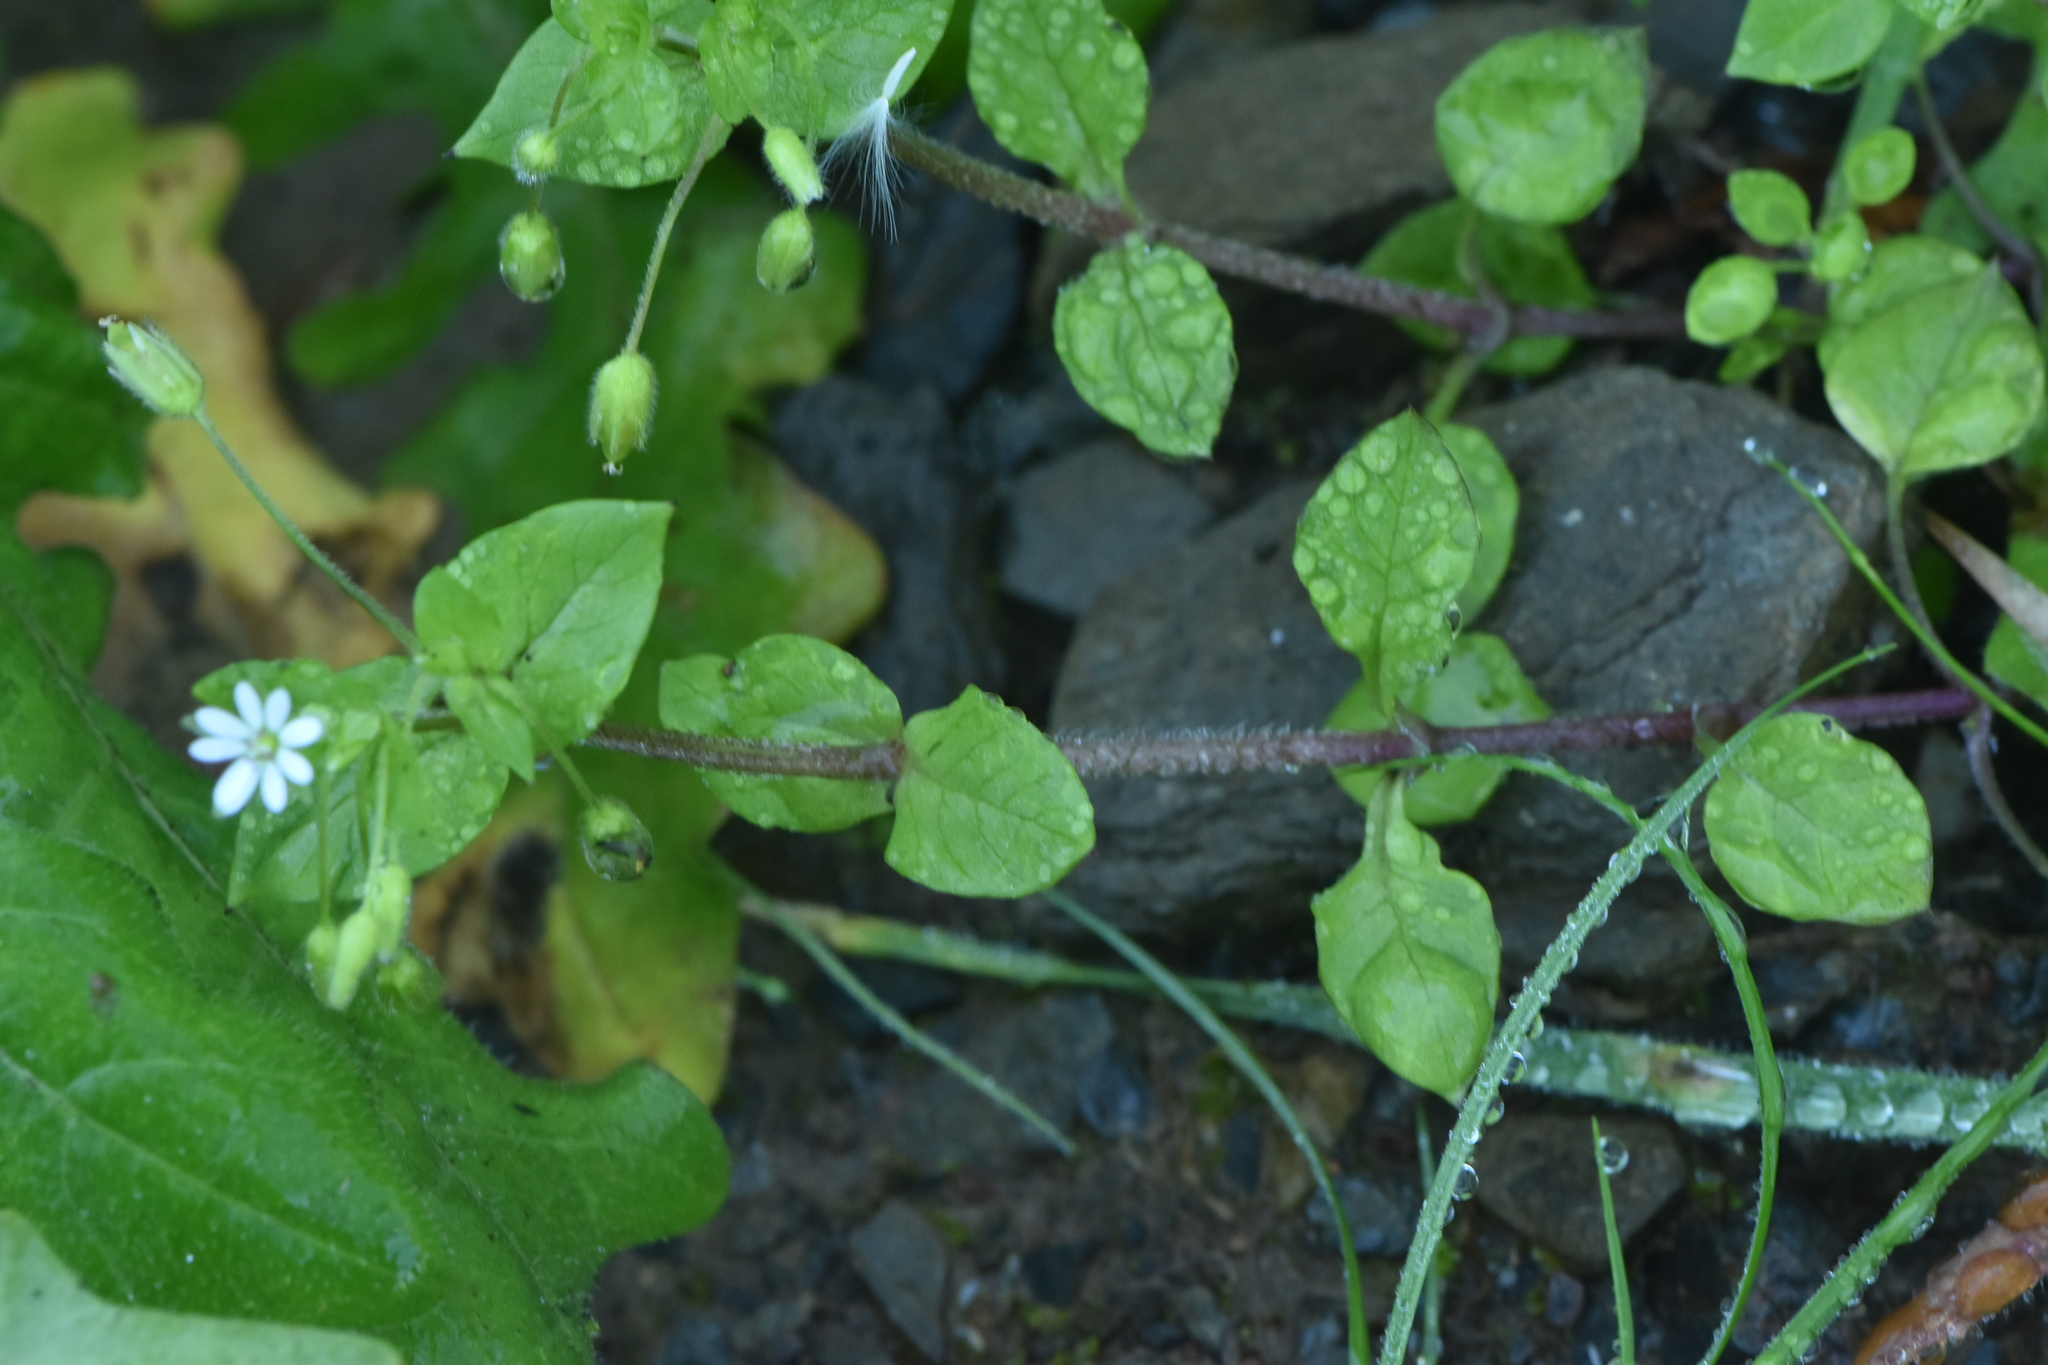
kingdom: Plantae
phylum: Tracheophyta
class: Magnoliopsida
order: Caryophyllales
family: Caryophyllaceae
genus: Stellaria
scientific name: Stellaria media
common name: Common chickweed
